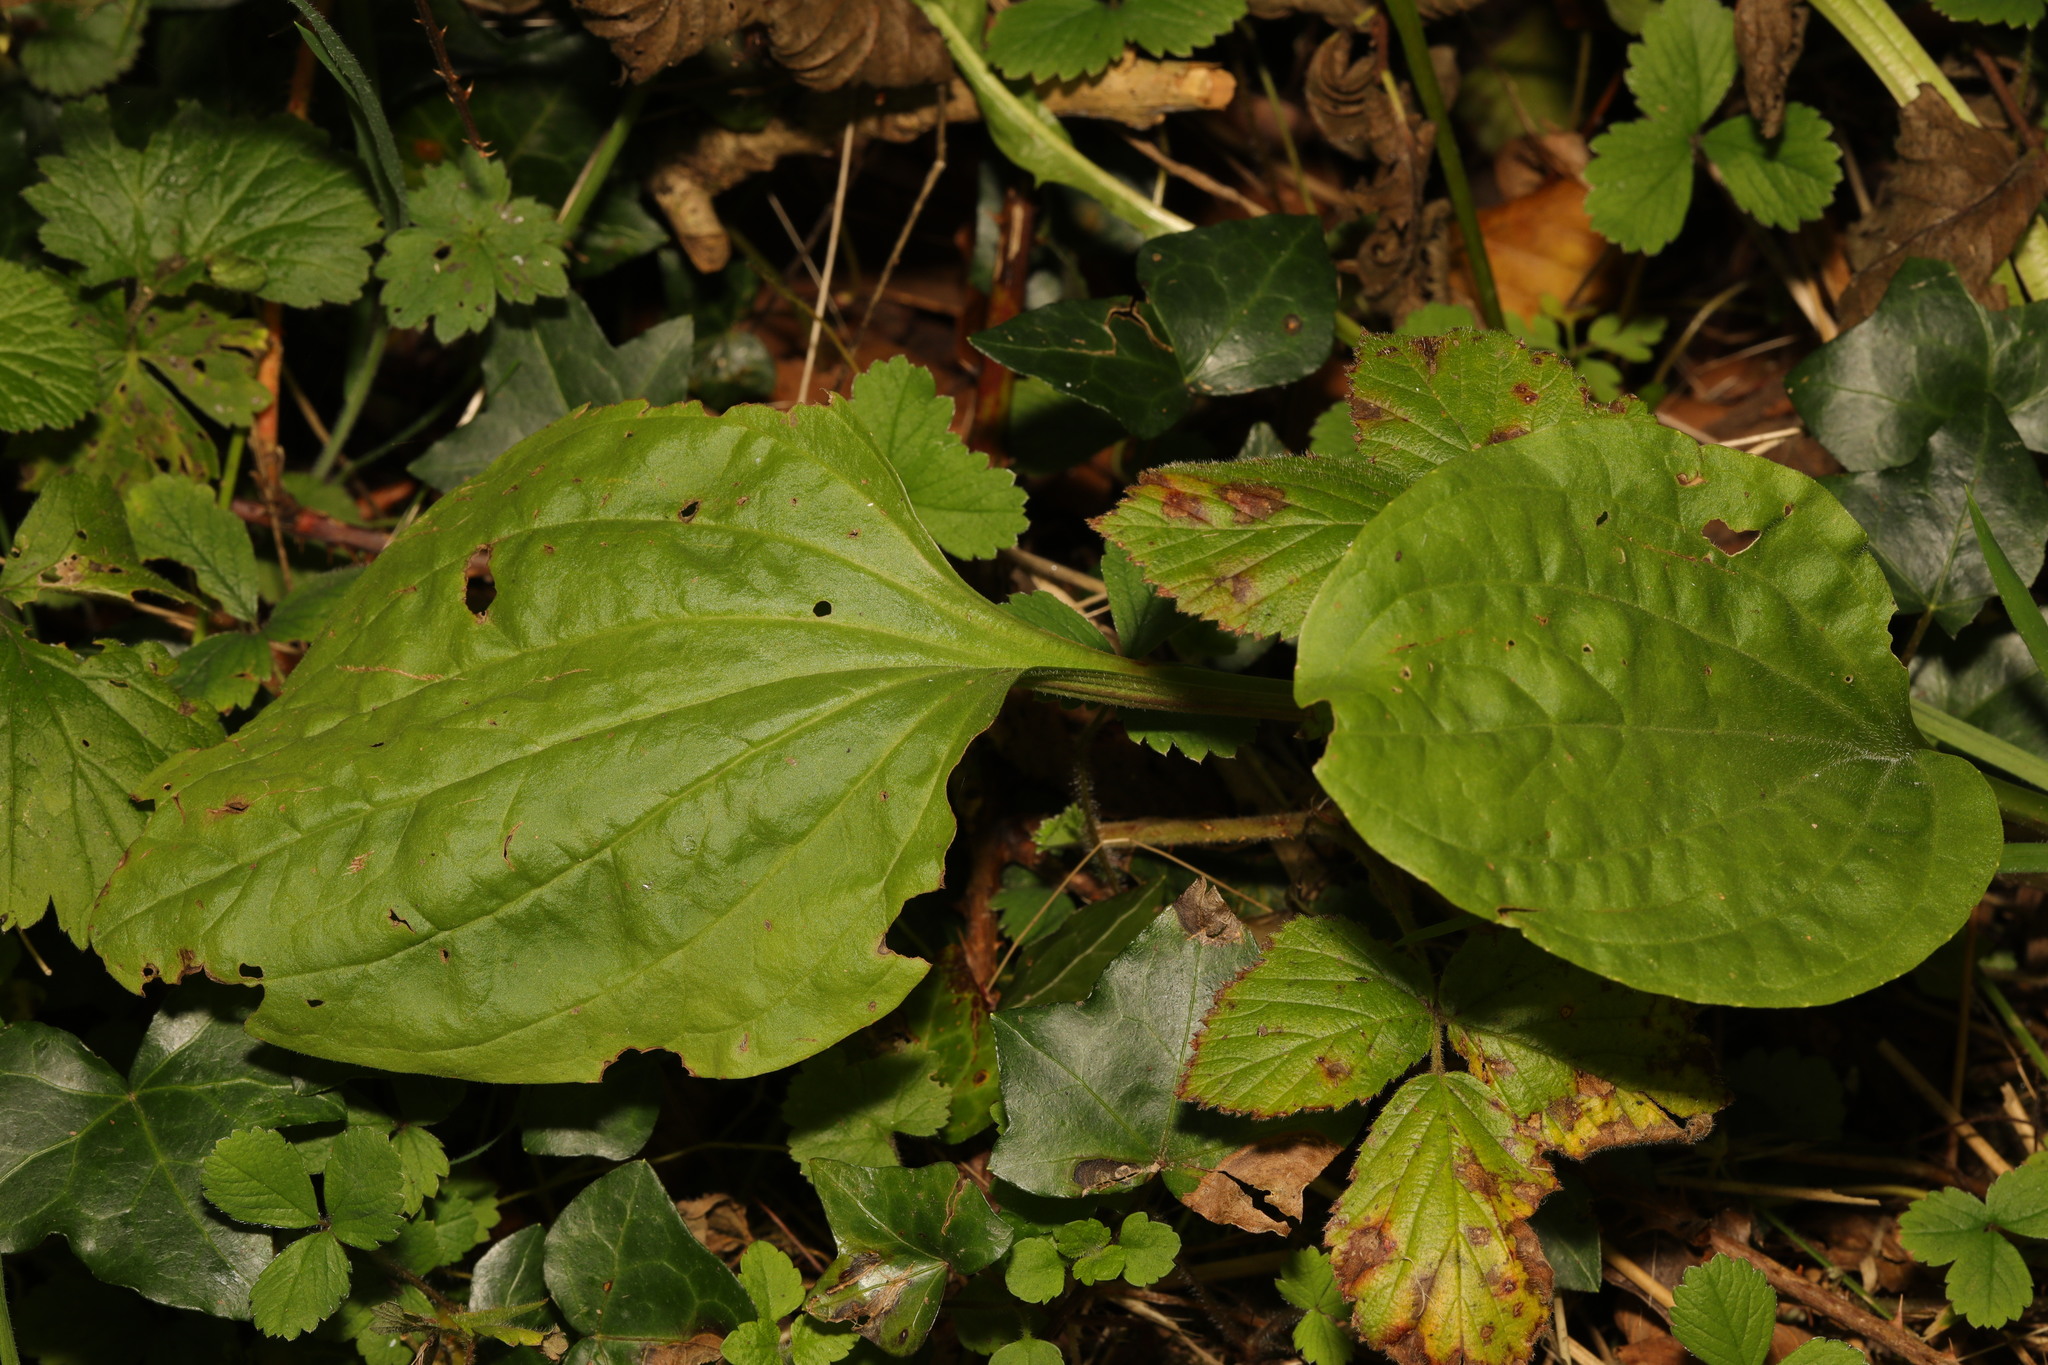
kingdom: Plantae
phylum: Tracheophyta
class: Magnoliopsida
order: Lamiales
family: Plantaginaceae
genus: Plantago
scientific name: Plantago major
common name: Common plantain
